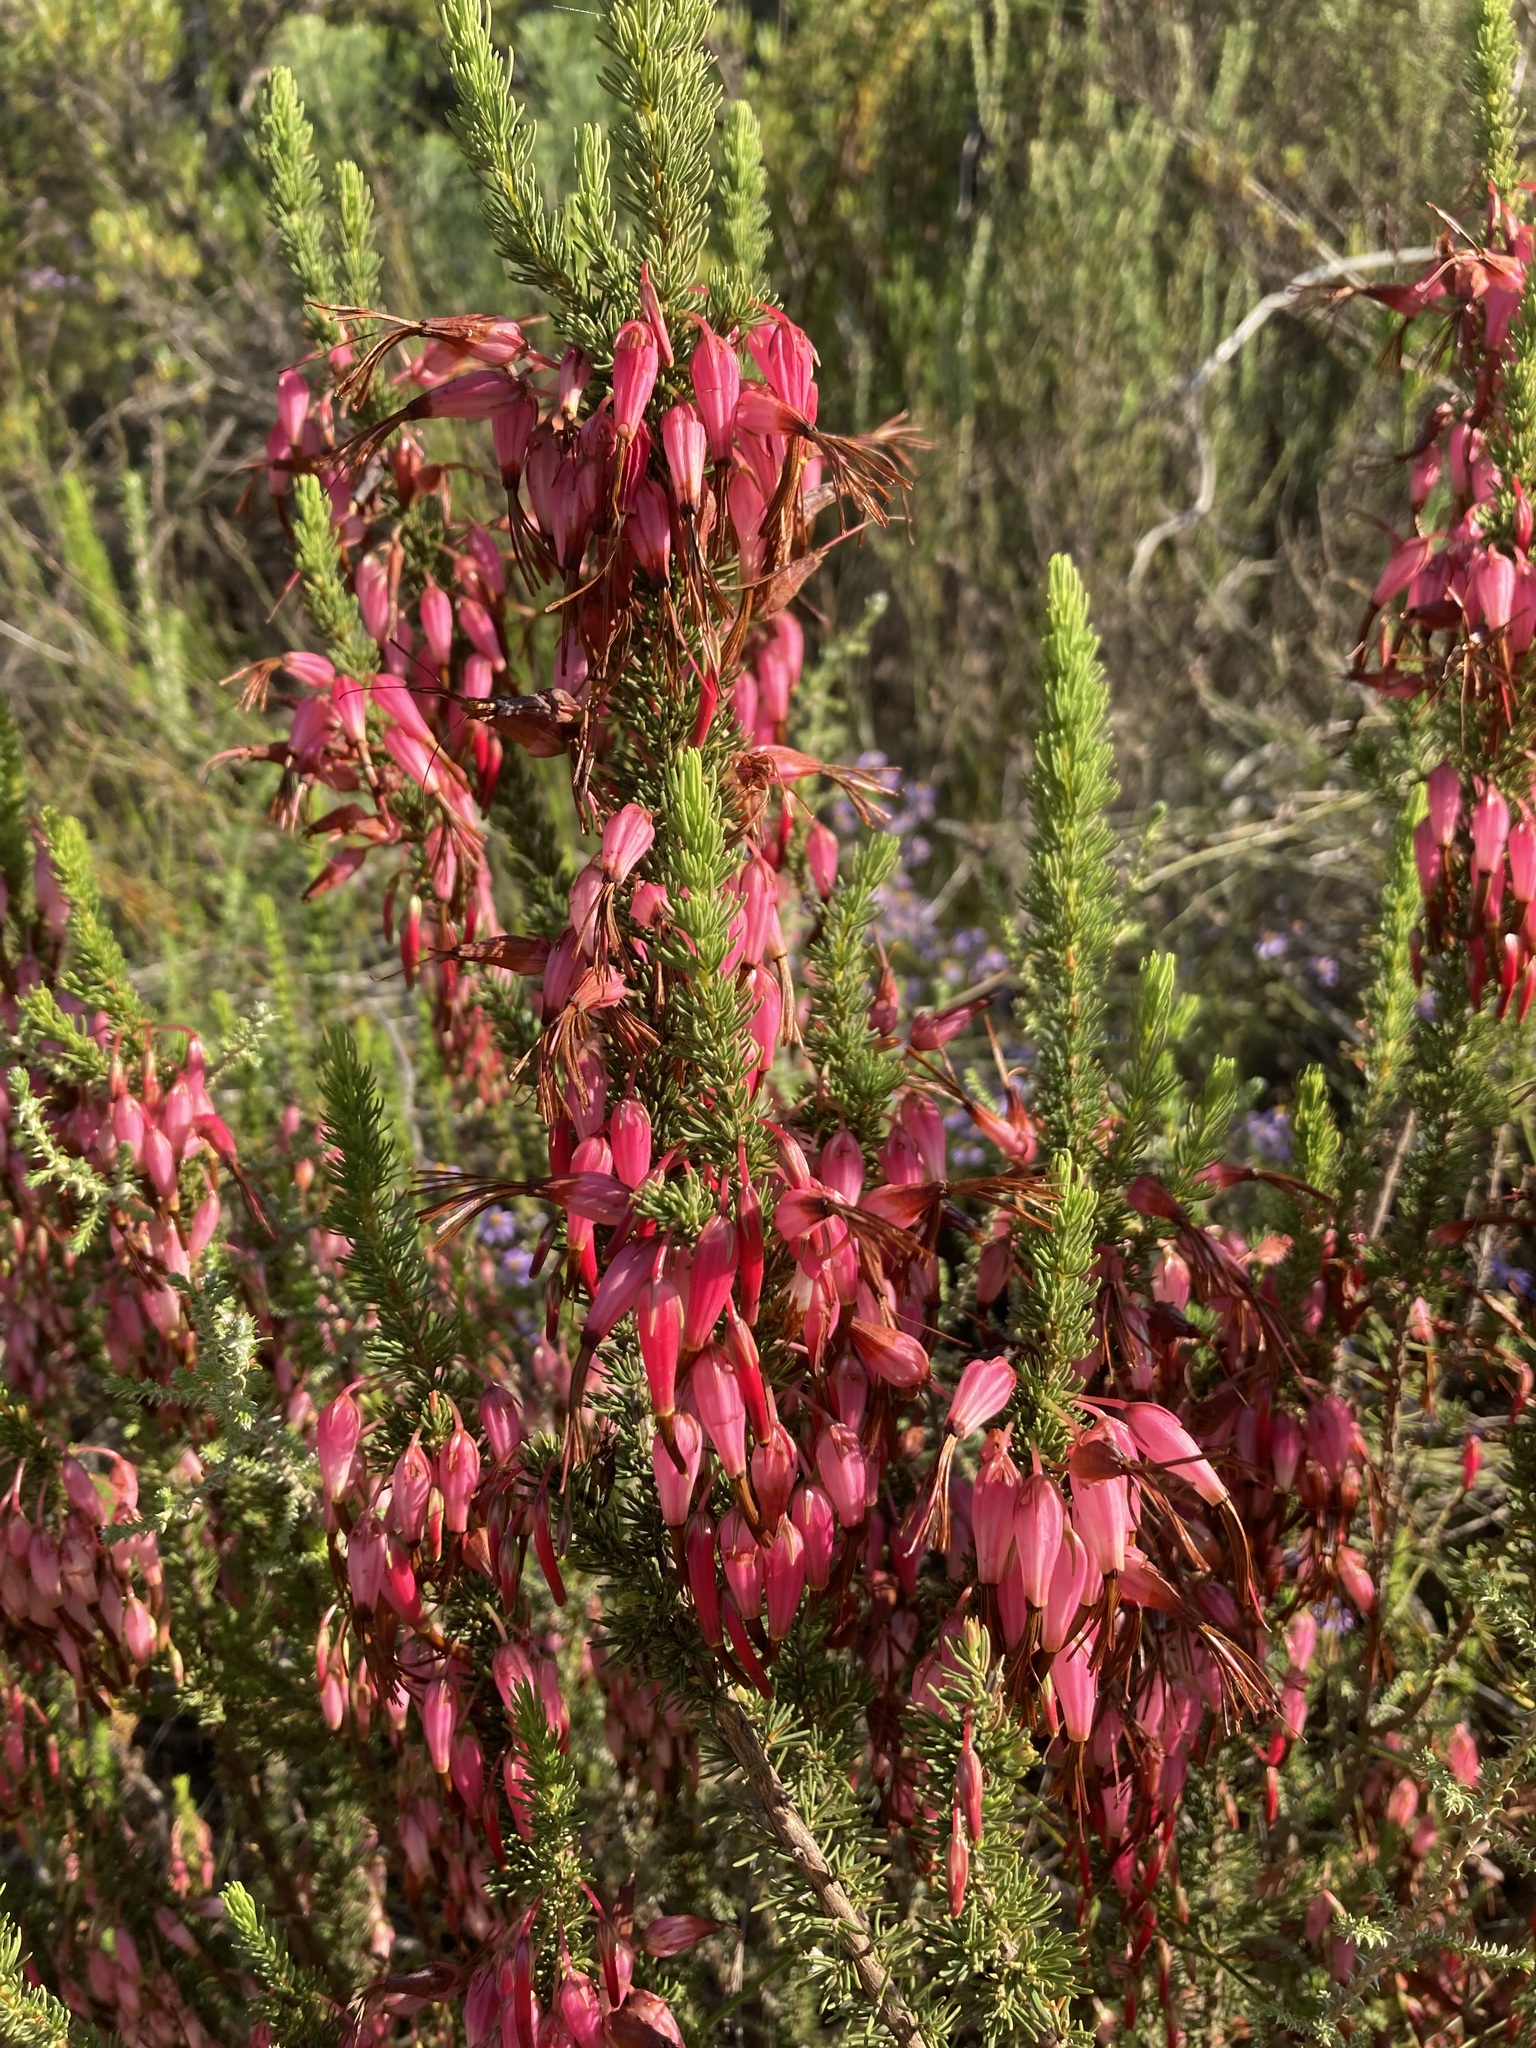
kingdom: Plantae
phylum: Tracheophyta
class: Magnoliopsida
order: Ericales
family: Ericaceae
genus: Erica
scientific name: Erica plukenetii
